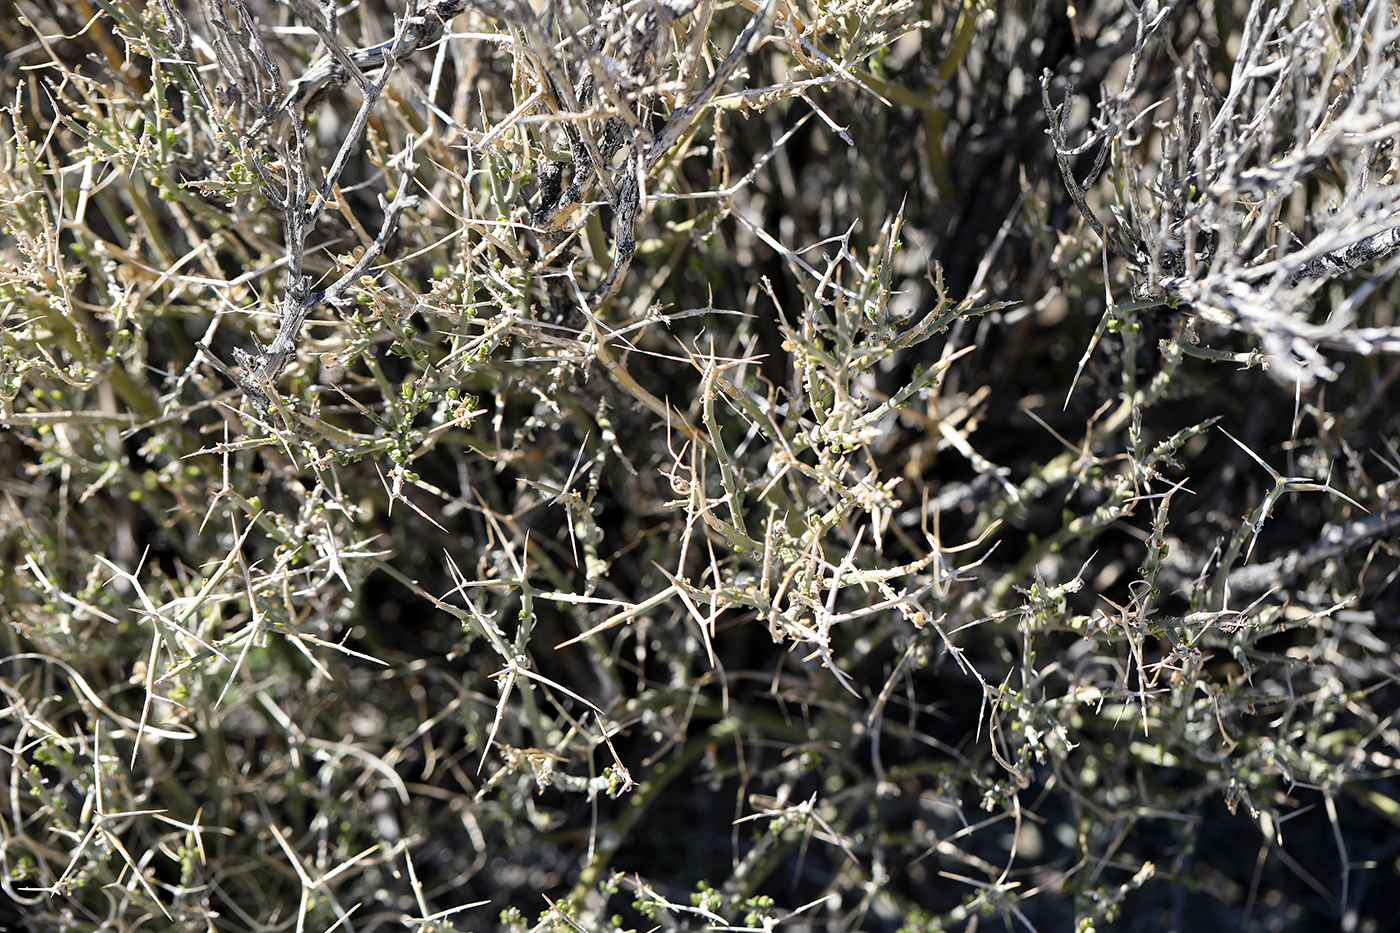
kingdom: Plantae
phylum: Tracheophyta
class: Magnoliopsida
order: Lamiales
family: Oleaceae
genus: Menodora
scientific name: Menodora spinescens
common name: Spiny menodora
